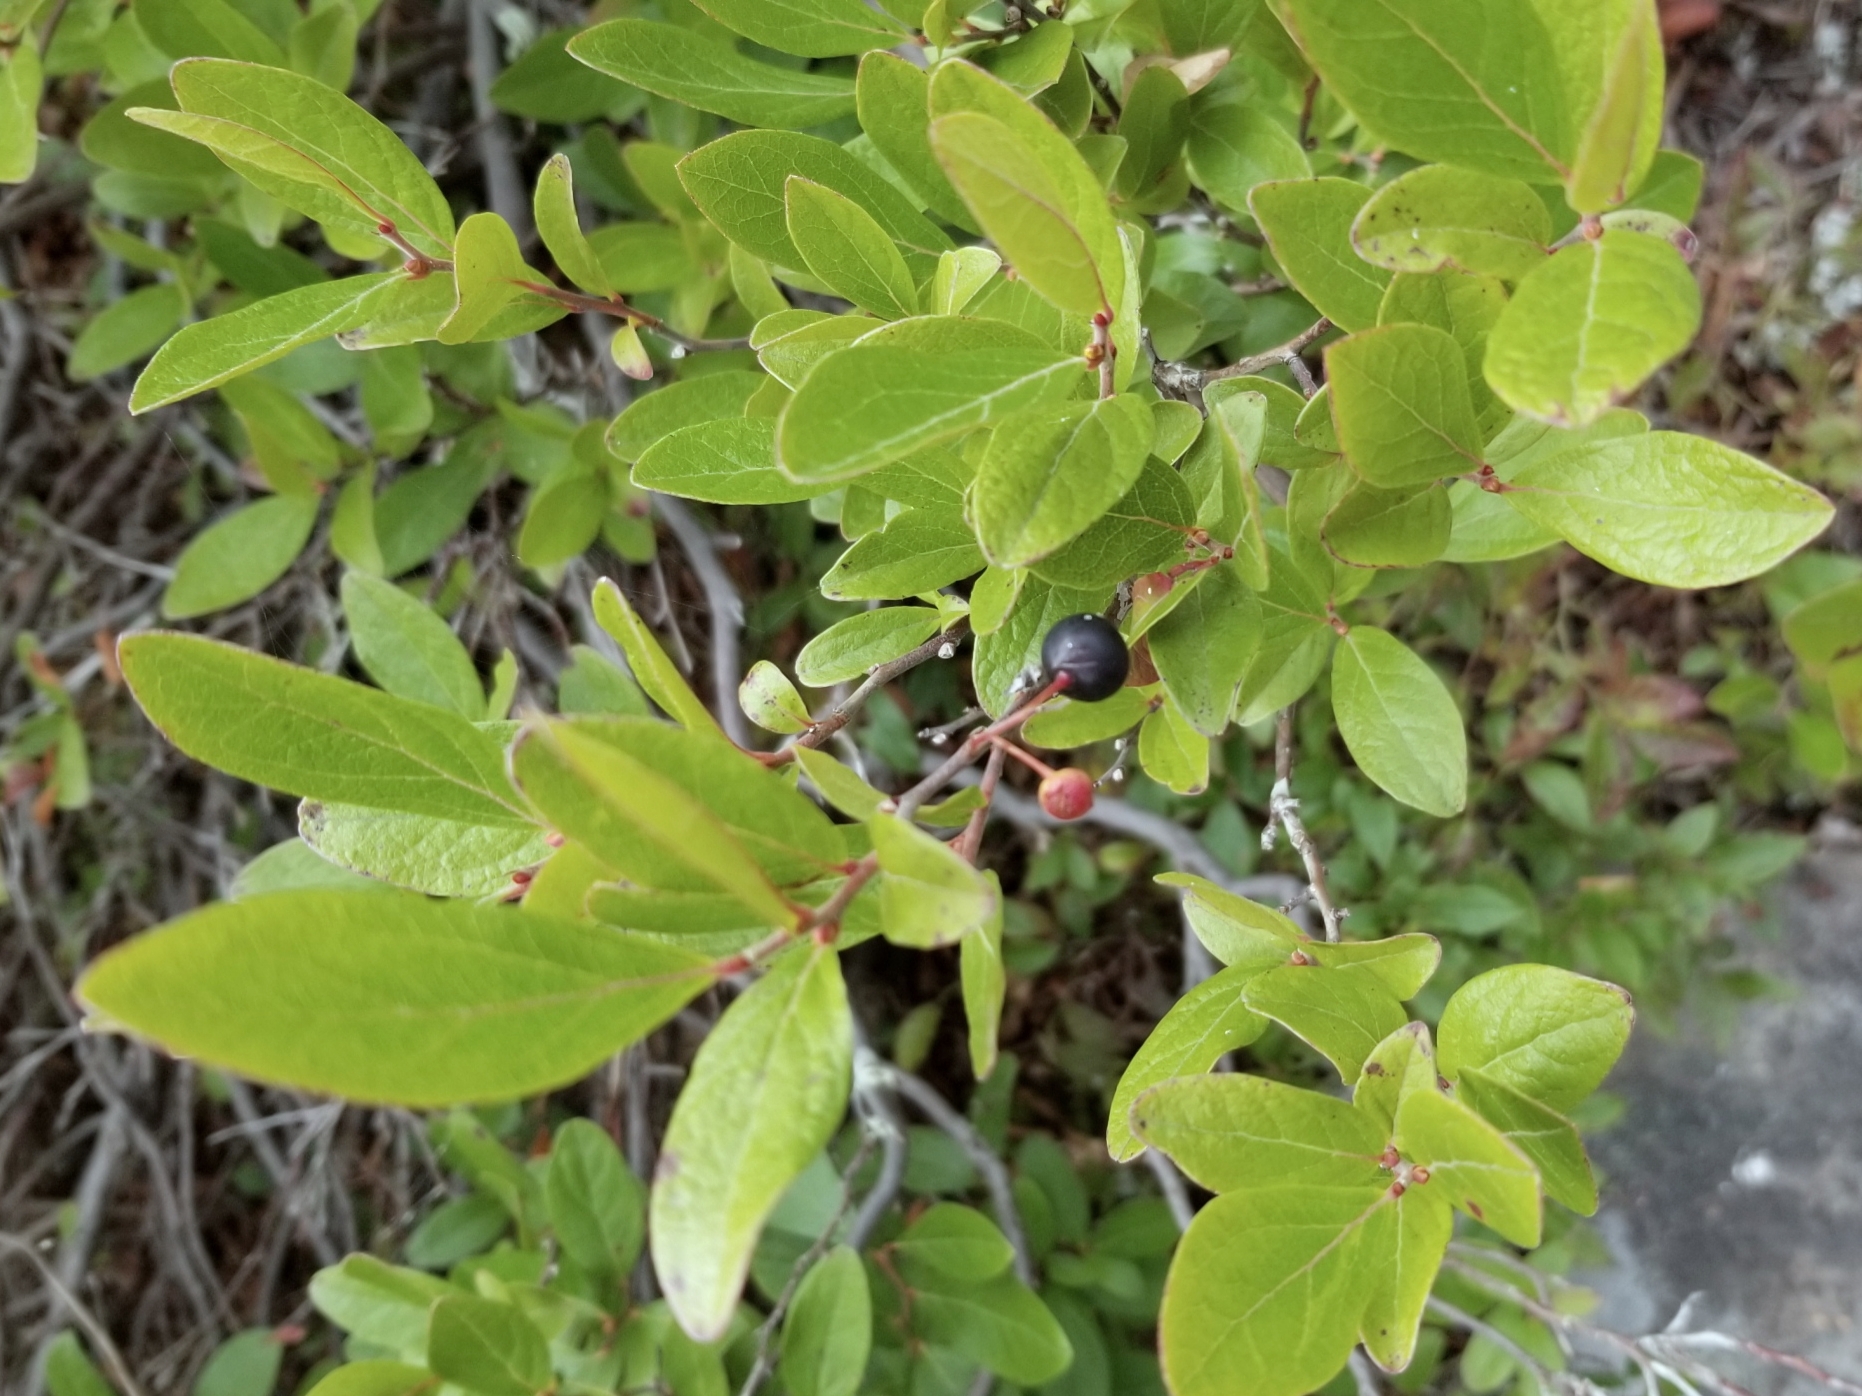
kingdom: Plantae
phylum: Tracheophyta
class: Magnoliopsida
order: Ericales
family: Ericaceae
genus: Gaylussacia
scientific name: Gaylussacia baccata
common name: Black huckleberry
